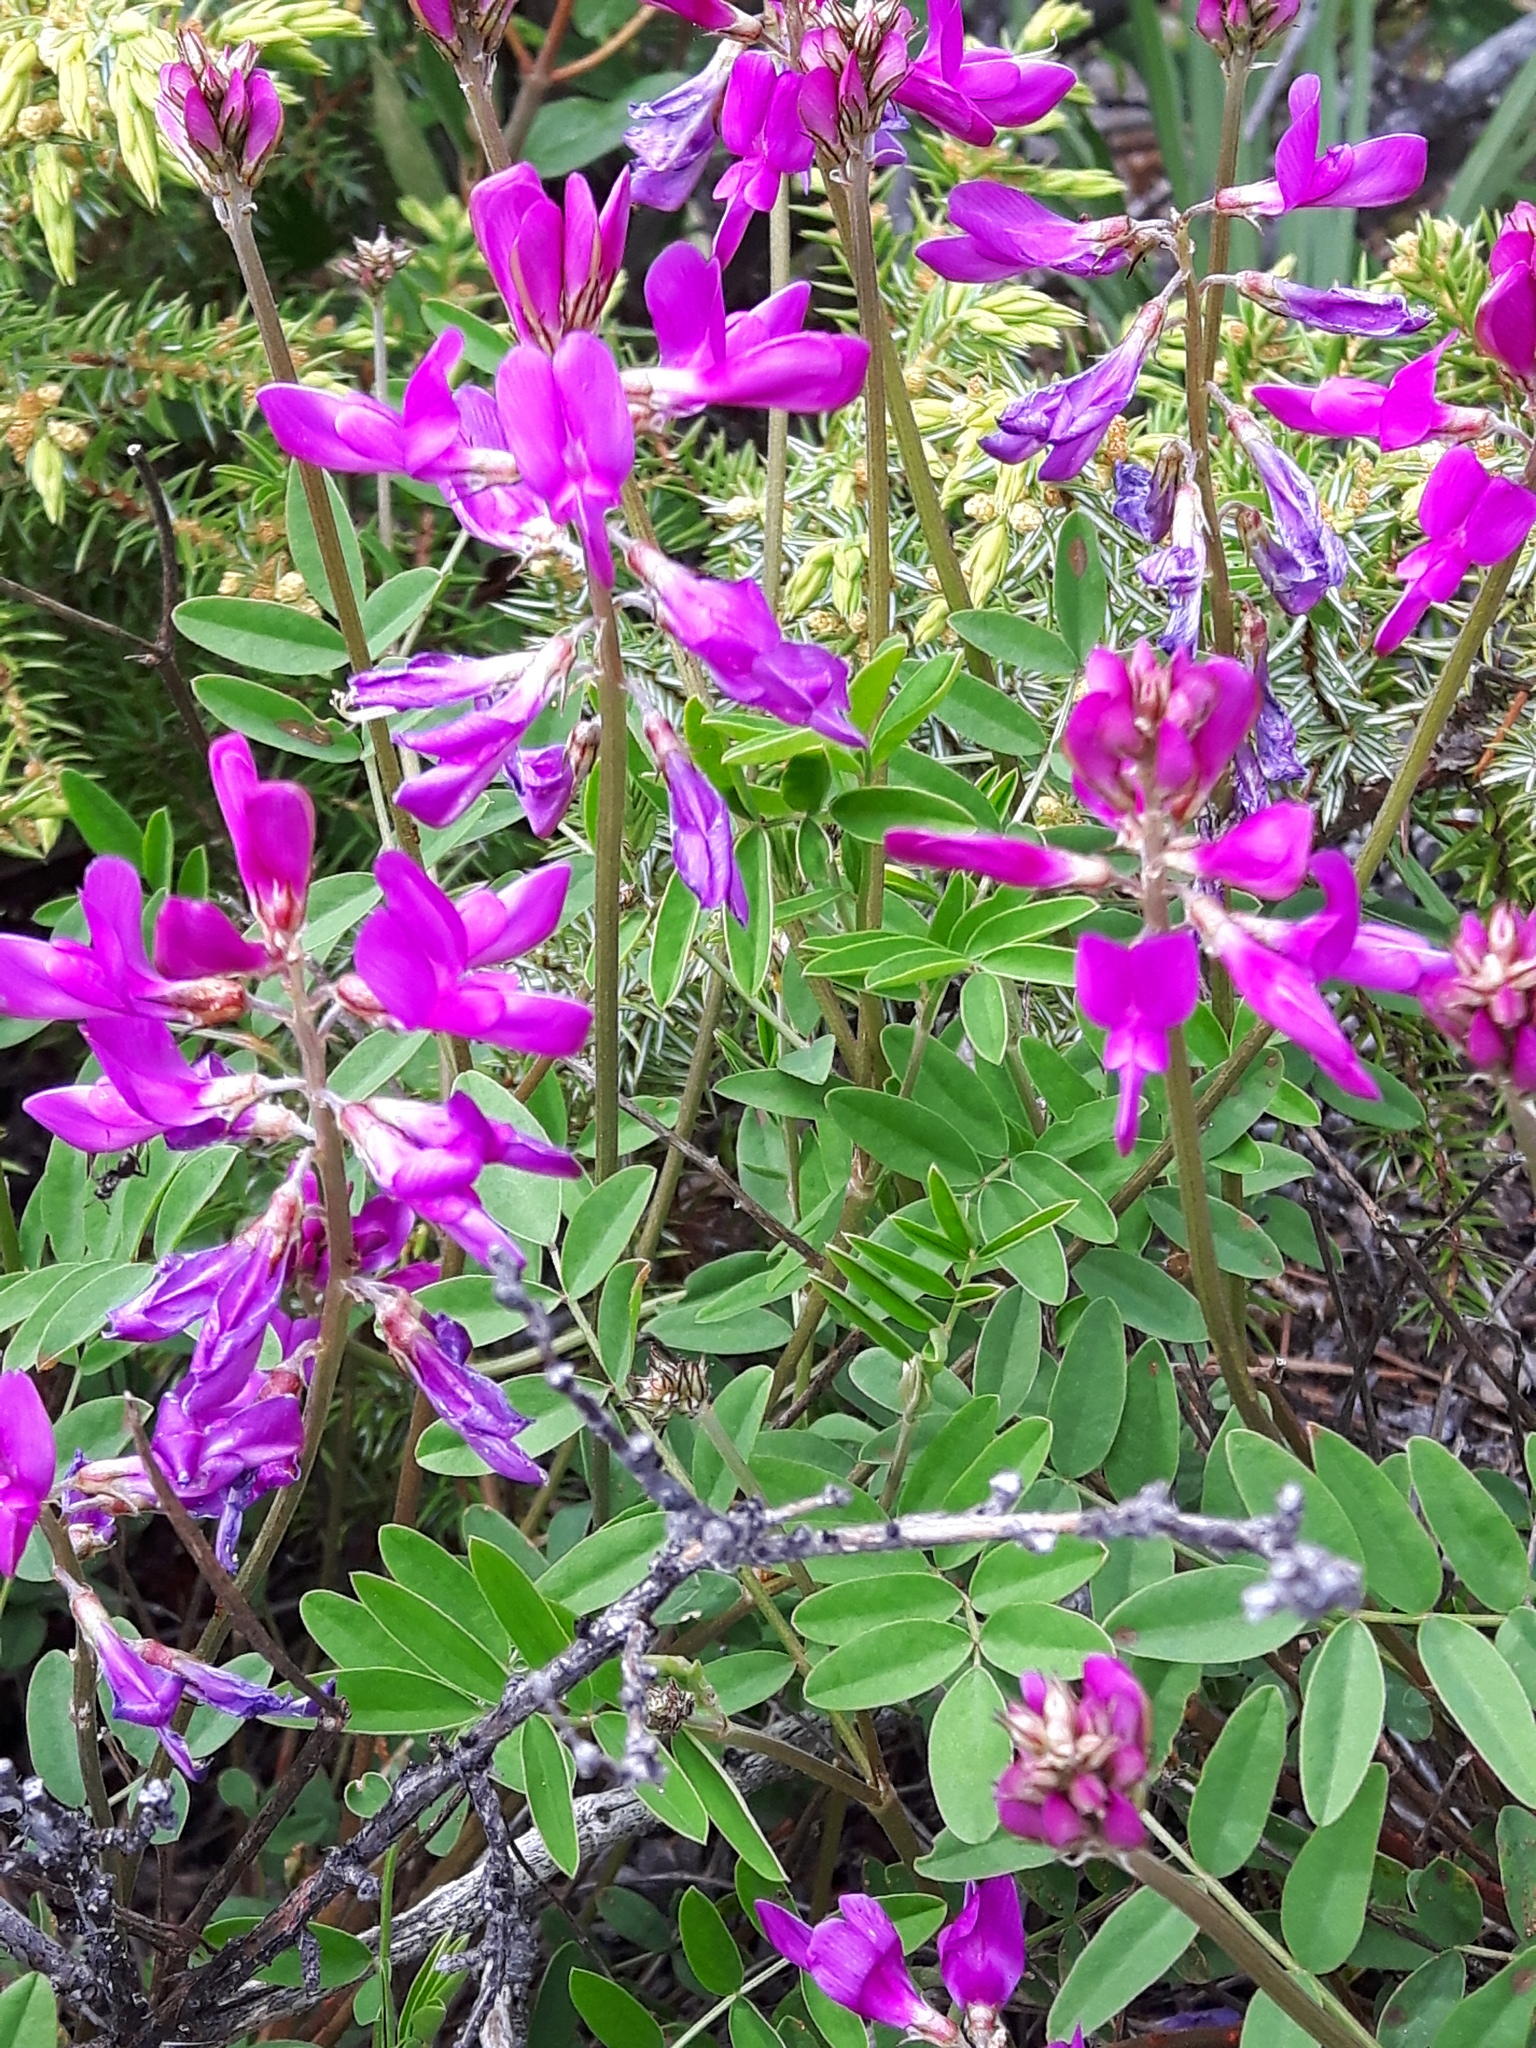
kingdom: Plantae
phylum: Tracheophyta
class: Magnoliopsida
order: Fabales
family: Fabaceae
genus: Hedysarum
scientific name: Hedysarum boreale
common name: Northern sweet-vetch
